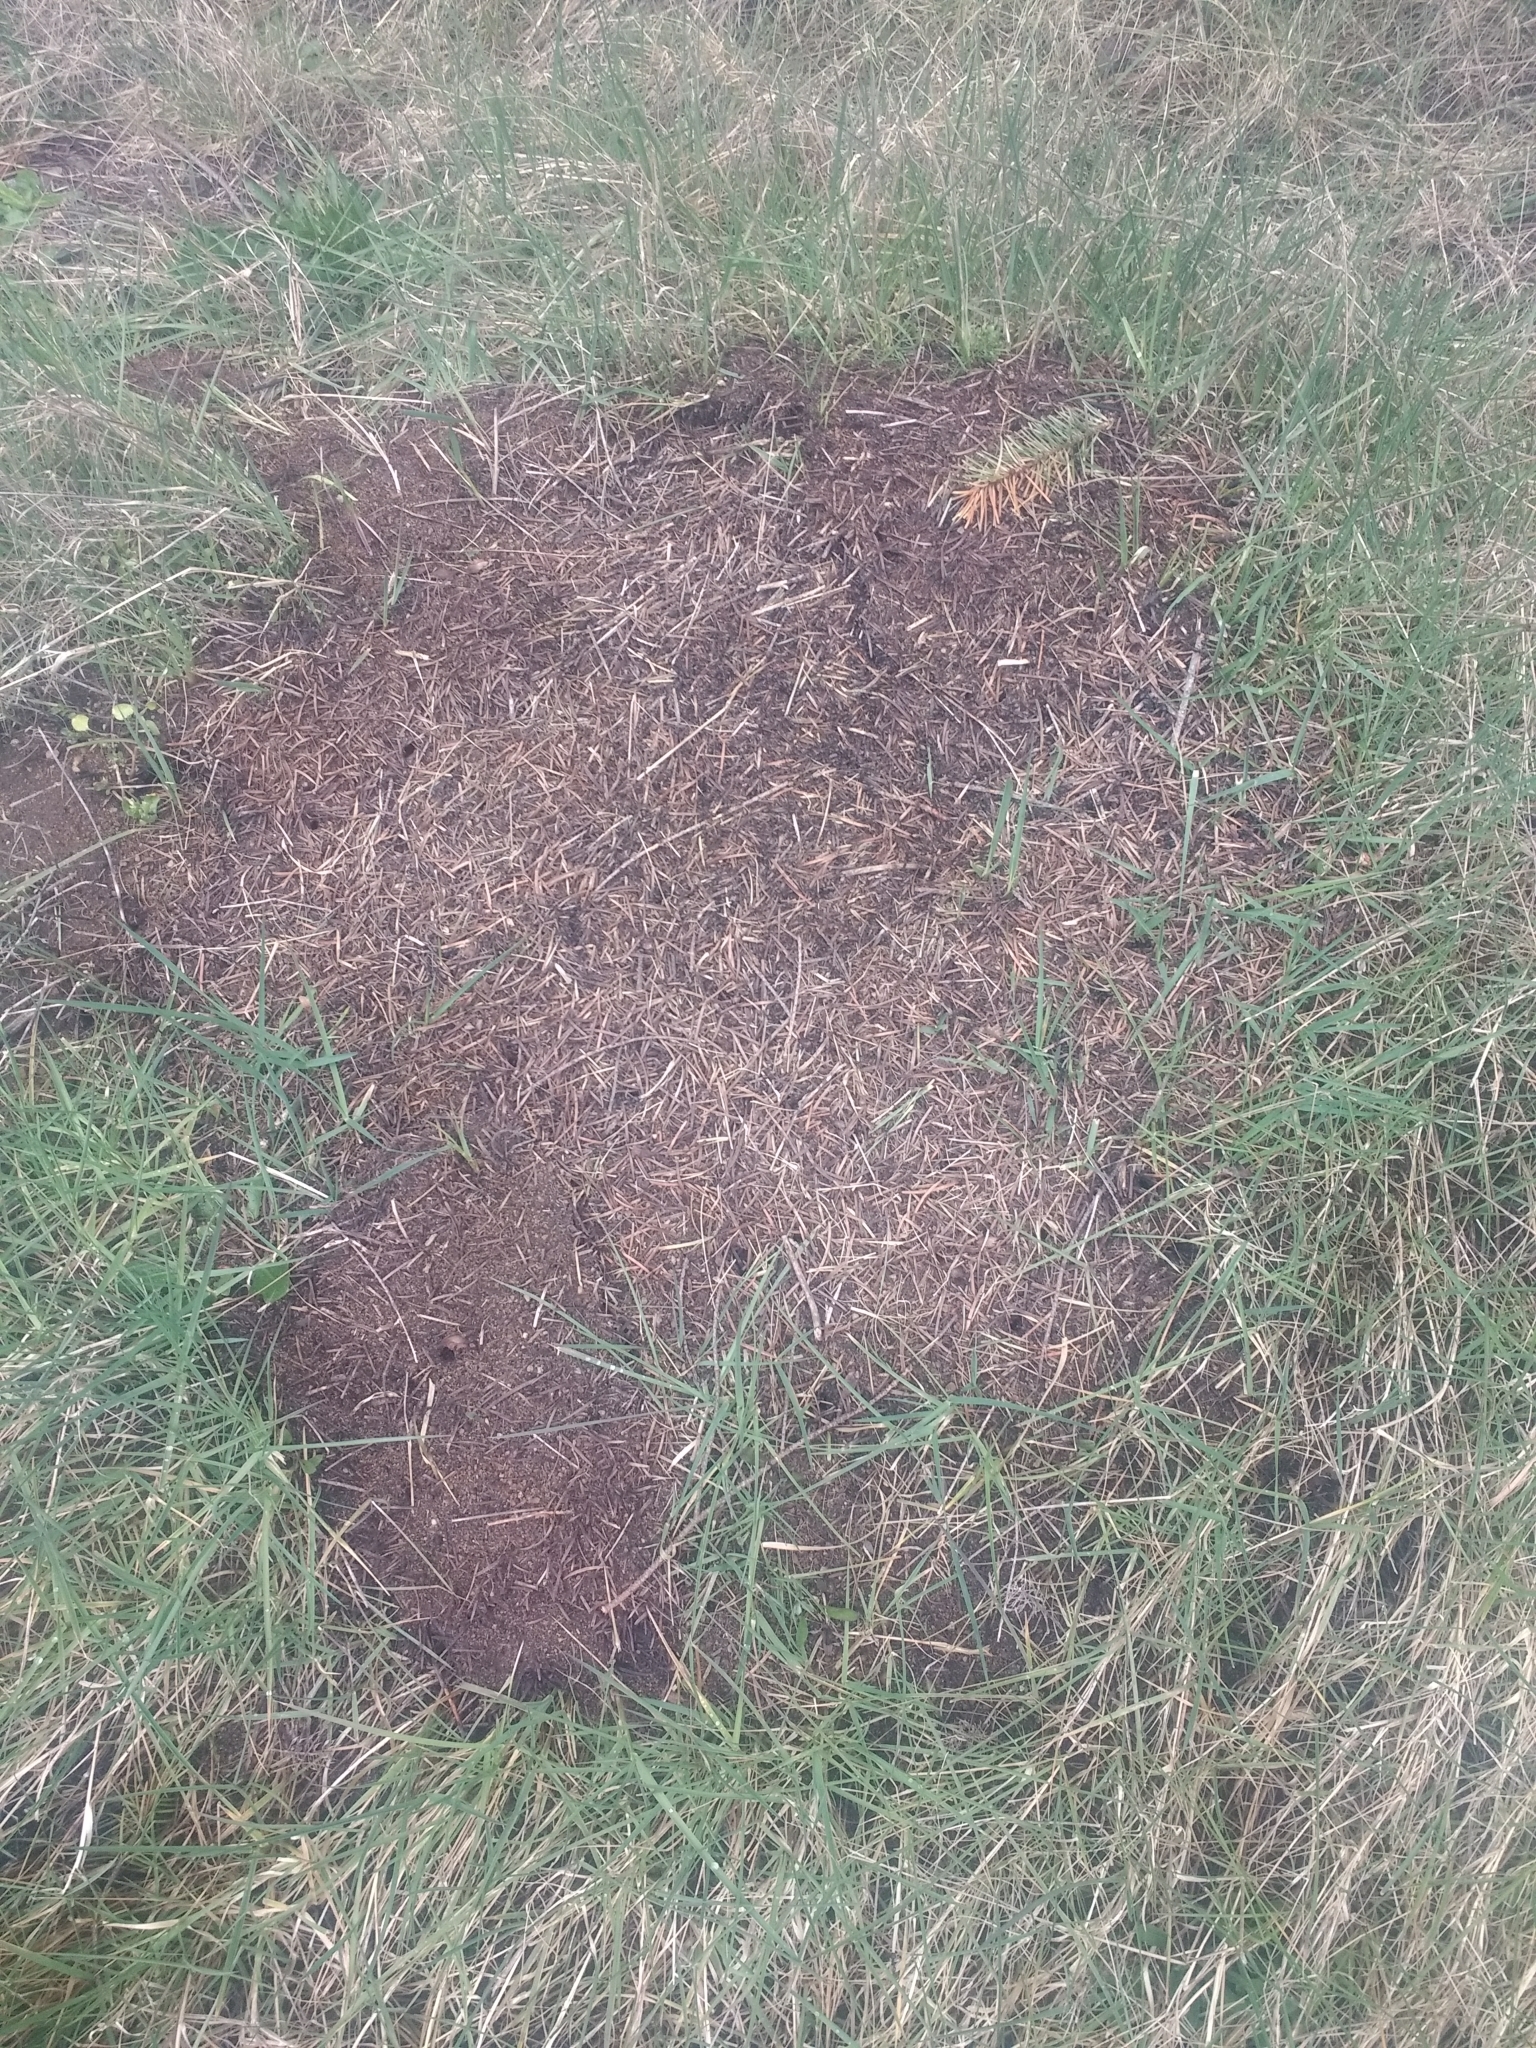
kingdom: Animalia
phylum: Arthropoda
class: Insecta
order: Hymenoptera
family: Formicidae
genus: Formica
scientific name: Formica obscuripes
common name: Western thatching ant
